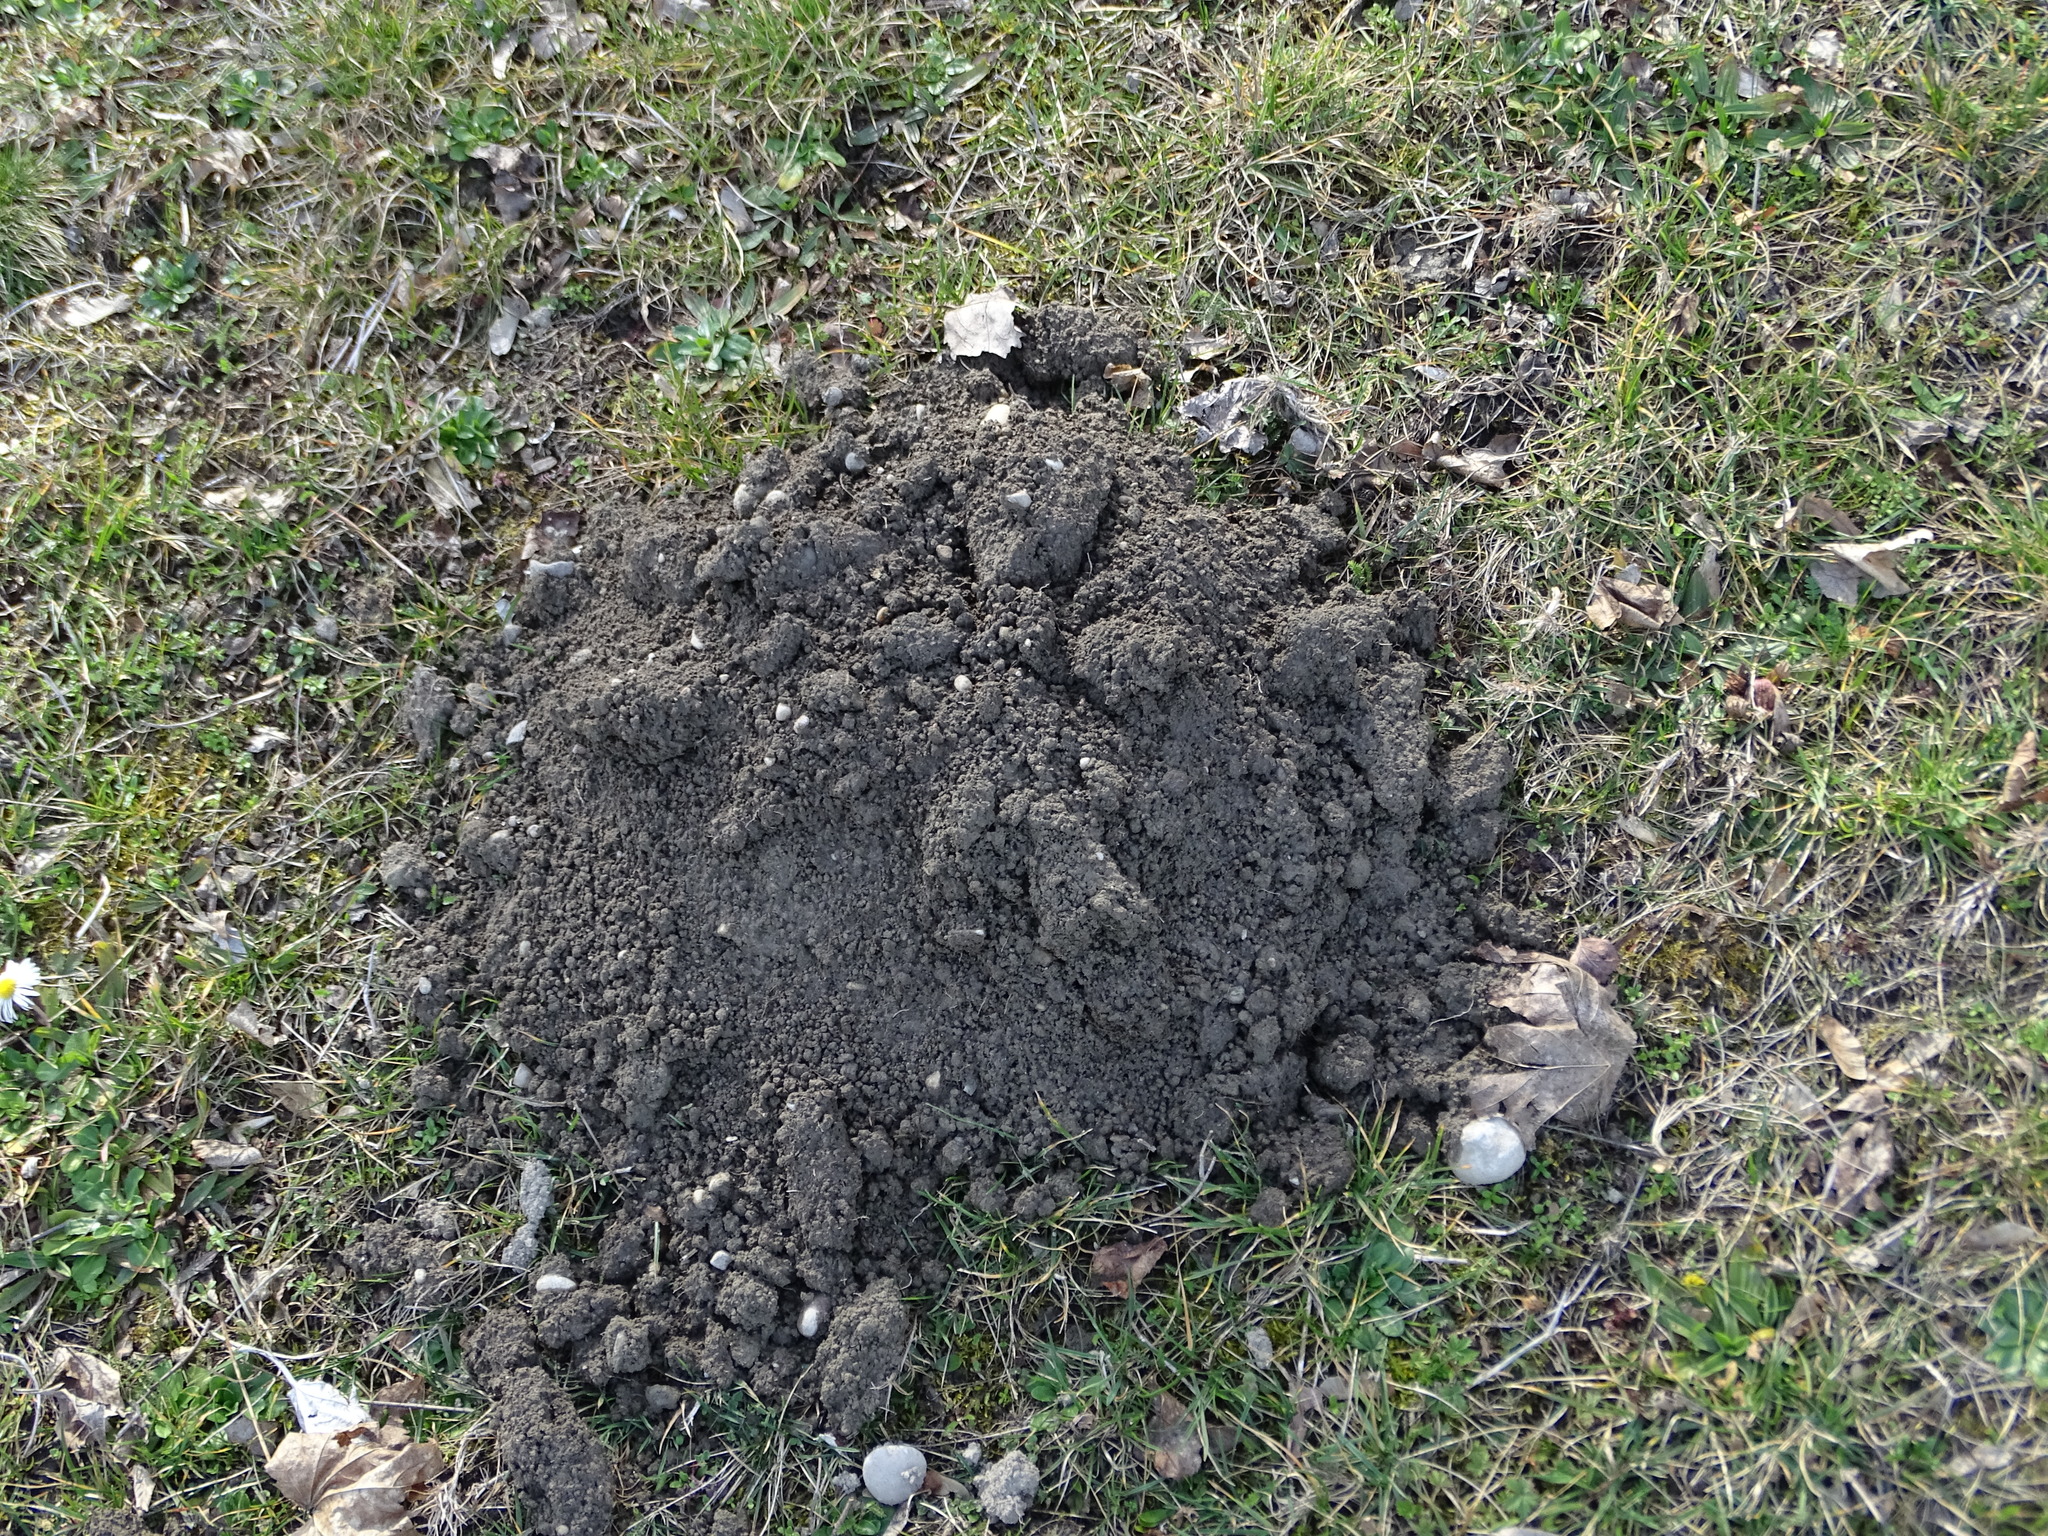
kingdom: Animalia
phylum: Chordata
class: Mammalia
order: Soricomorpha
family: Talpidae
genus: Talpa
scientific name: Talpa europaea
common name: European mole
